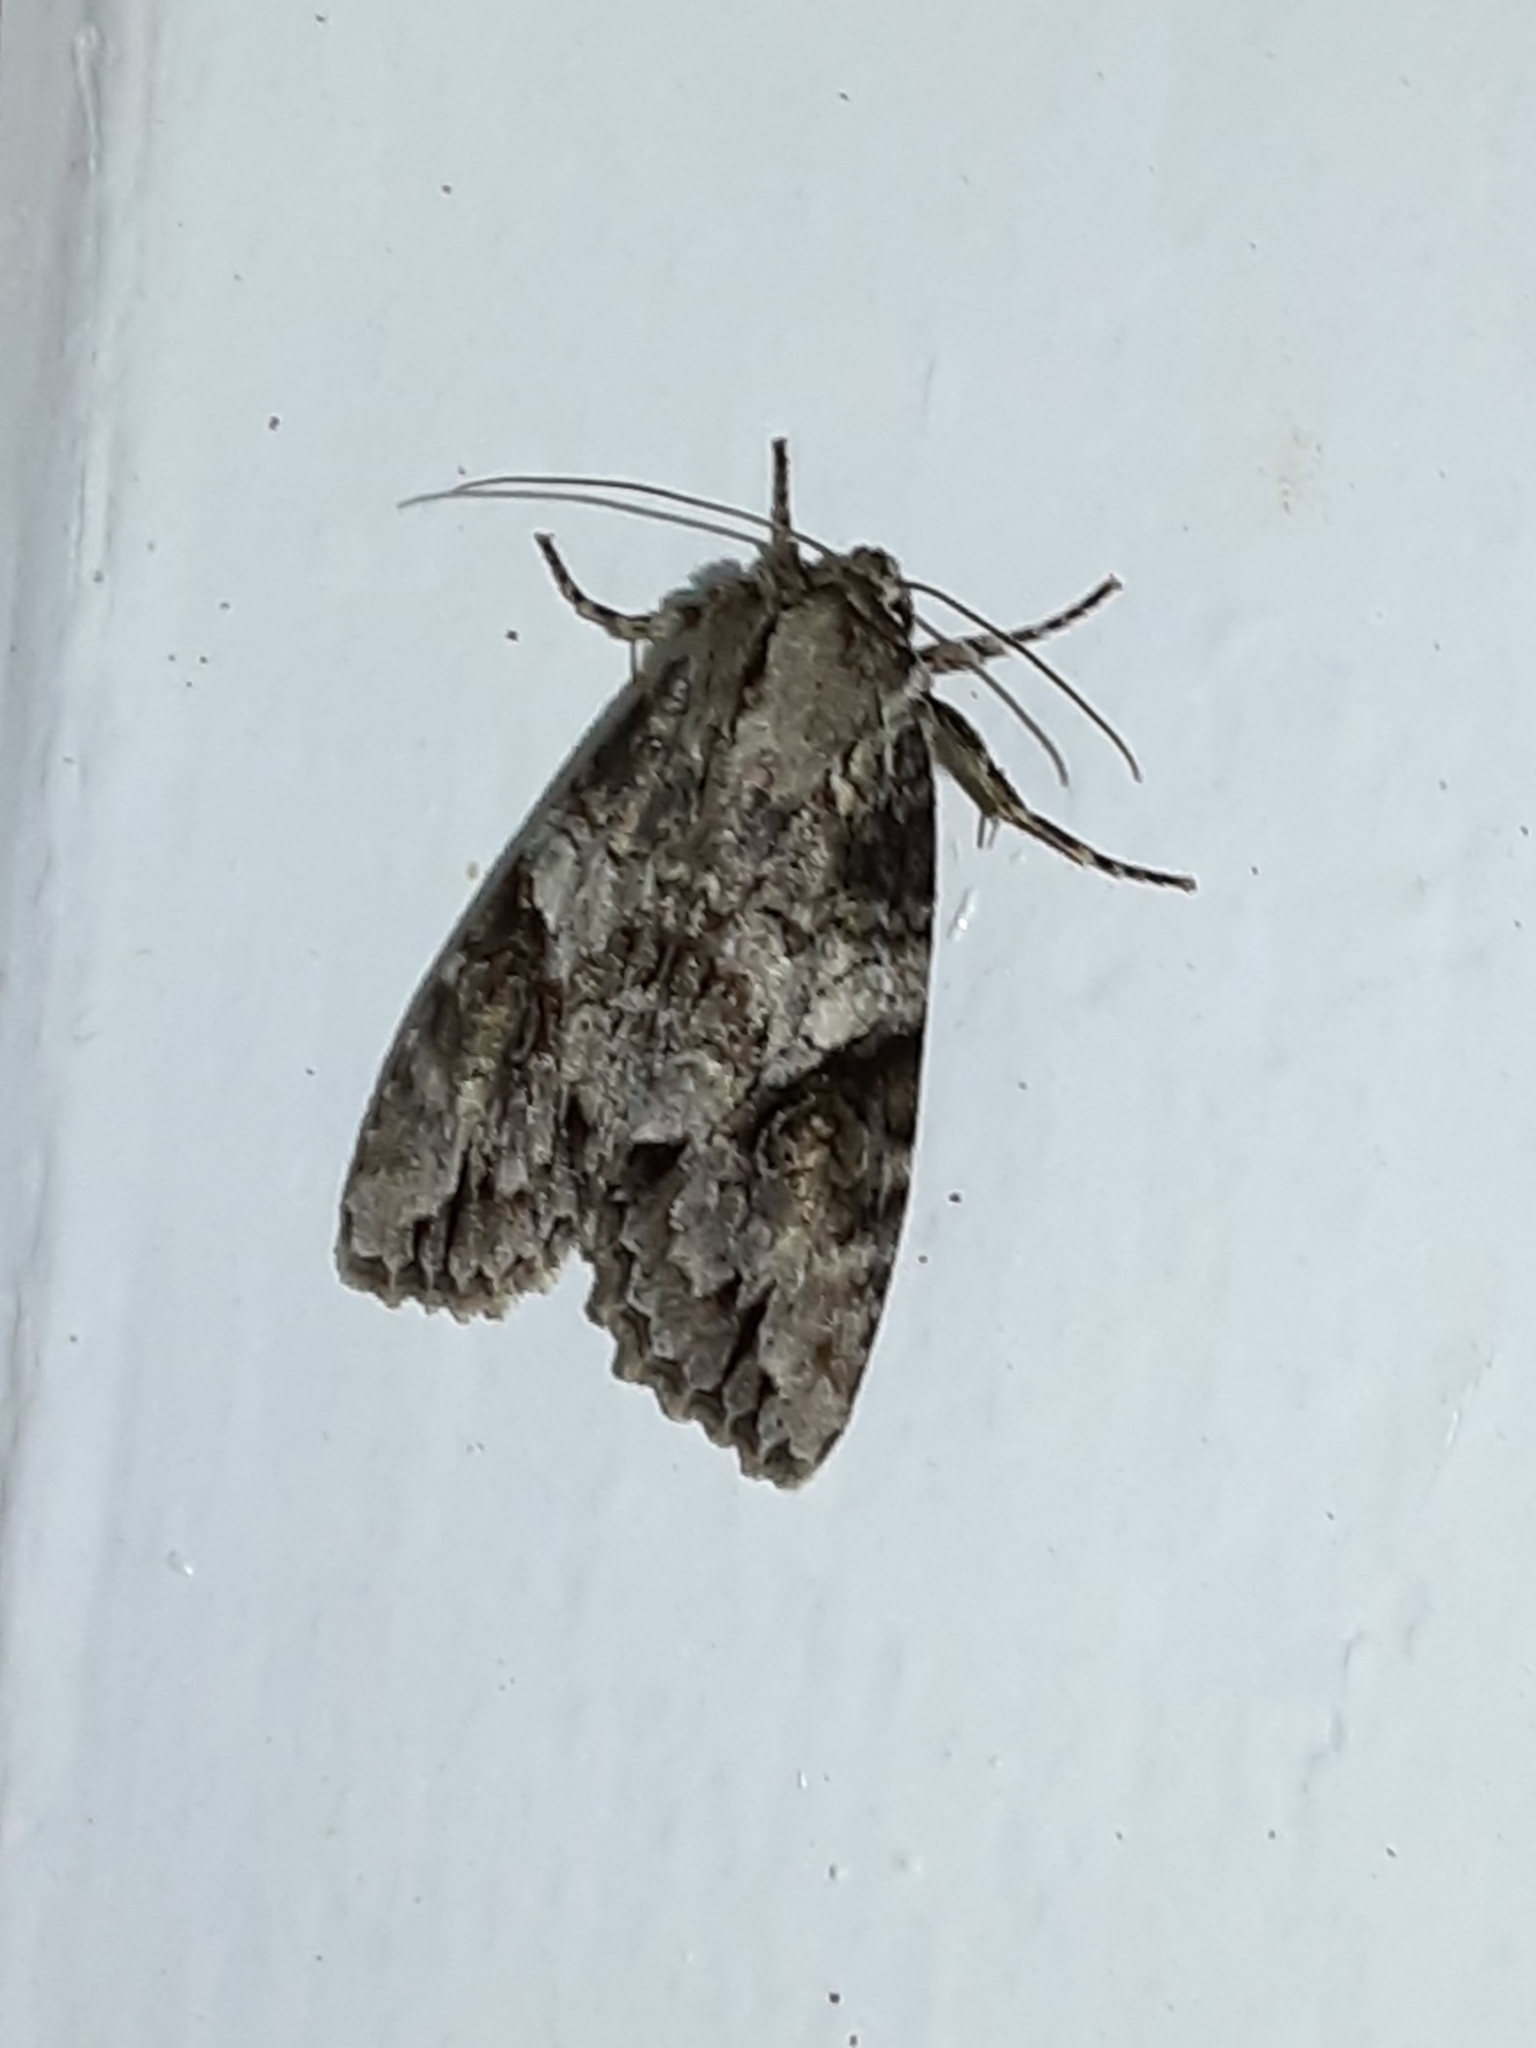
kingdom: Animalia
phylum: Arthropoda
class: Insecta
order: Lepidoptera
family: Noctuidae
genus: Achatia
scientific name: Achatia latex
